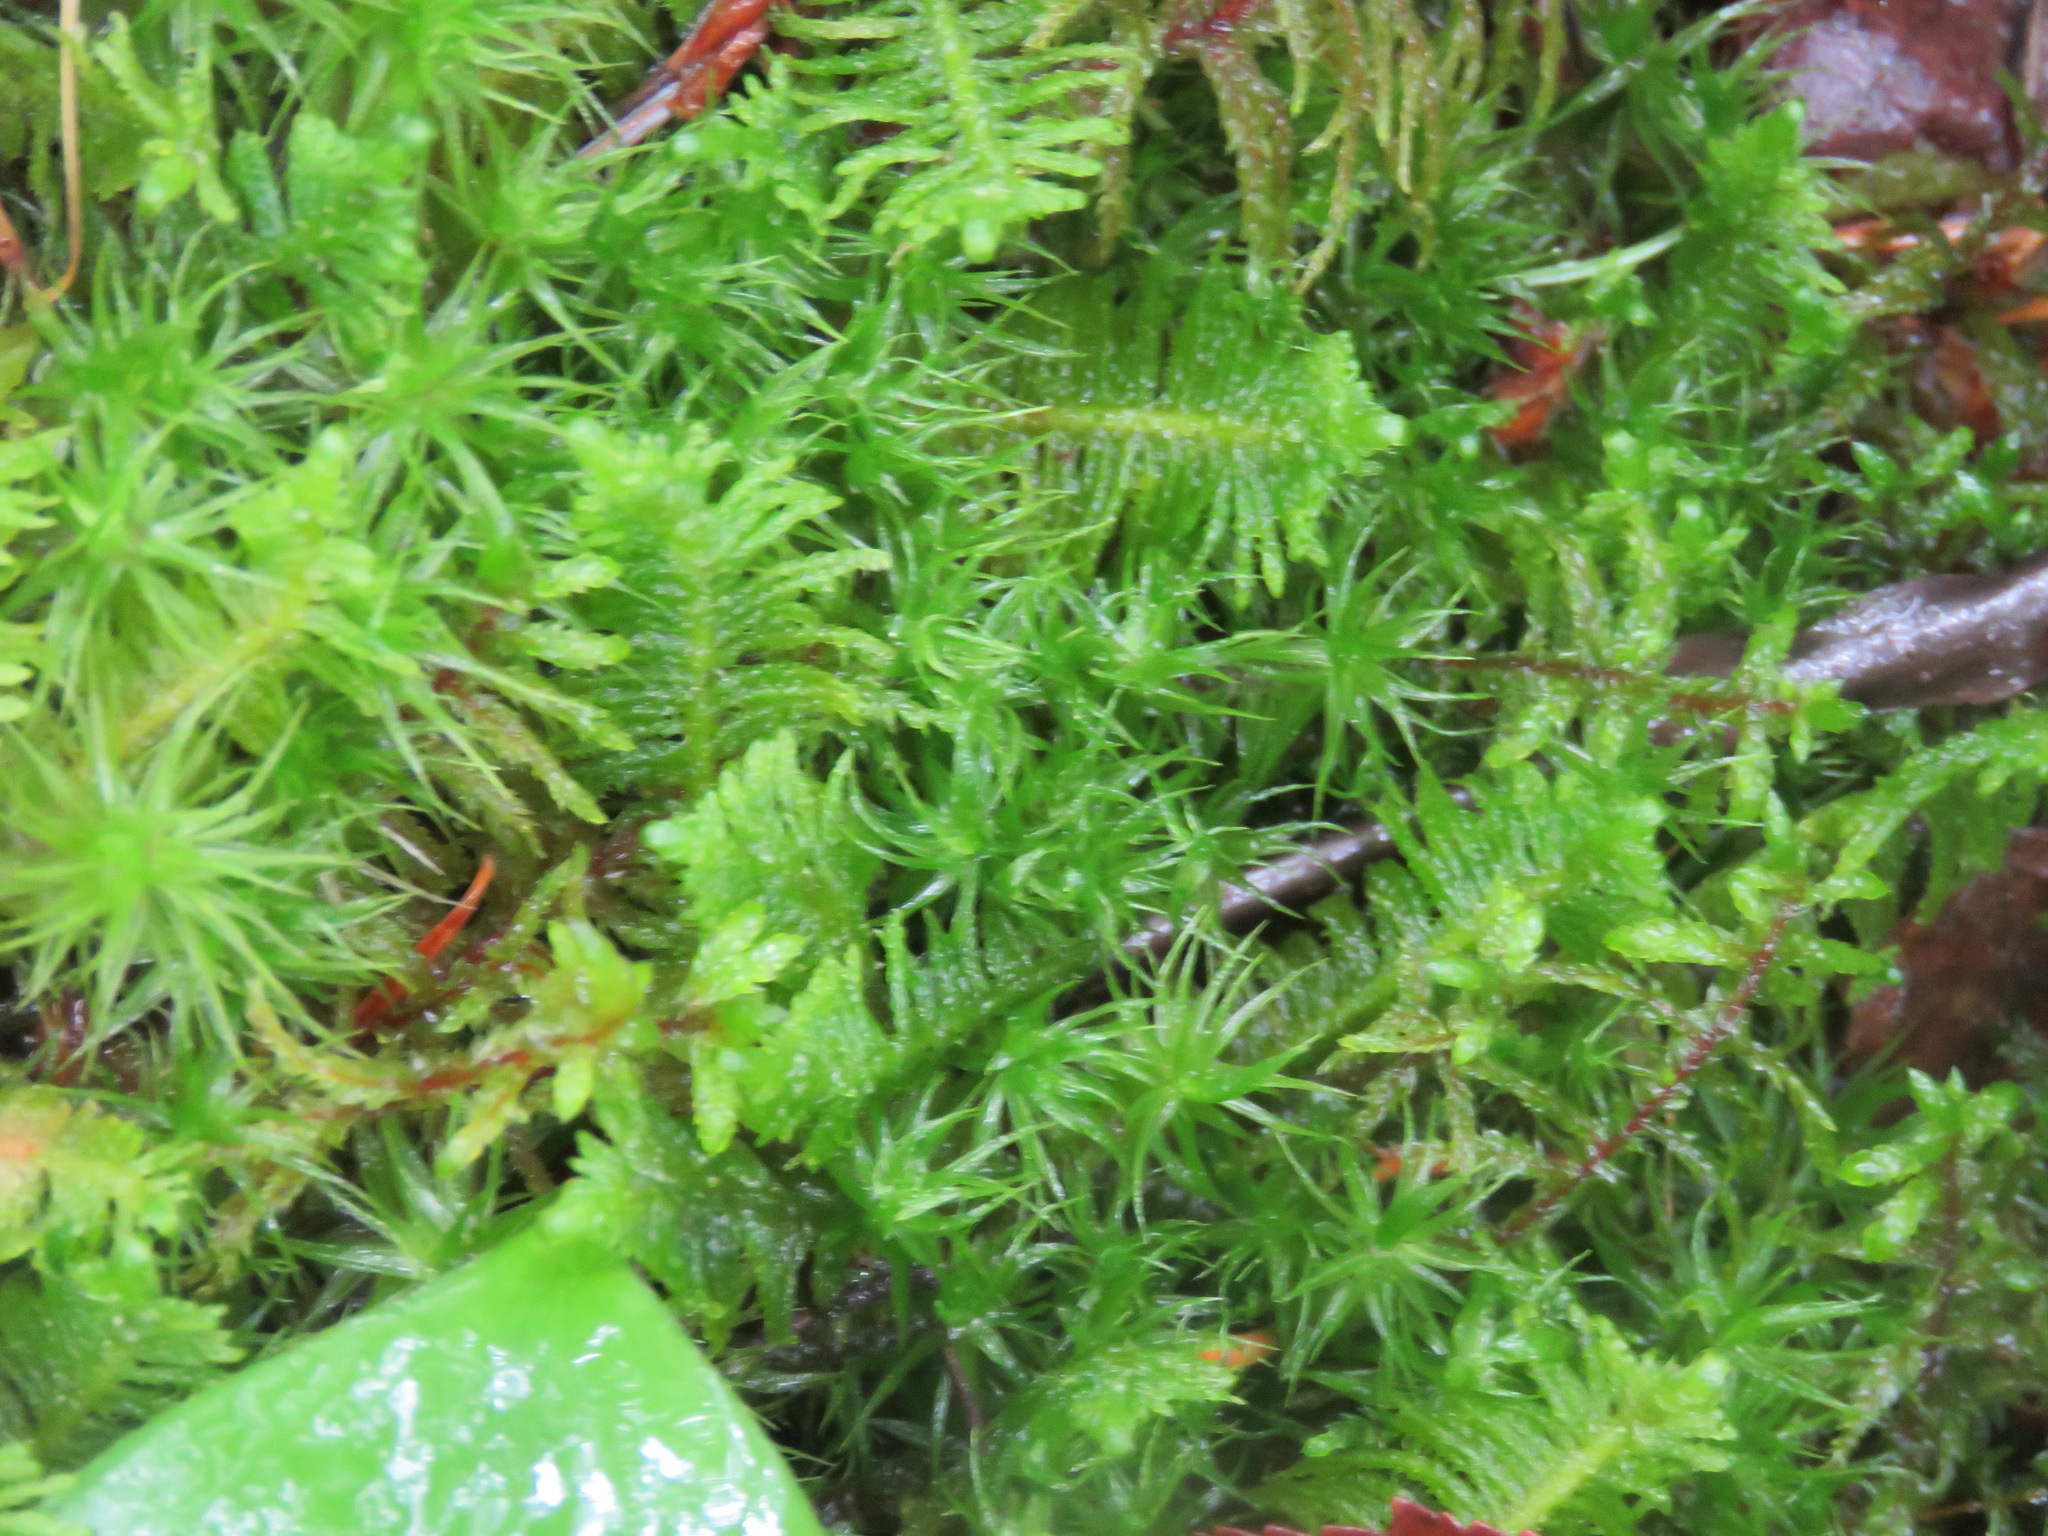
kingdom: Plantae
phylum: Bryophyta
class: Bryopsida
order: Hypnales
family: Pylaisiaceae
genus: Ptilium
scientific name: Ptilium crista-castrensis
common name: Knight's plume moss
